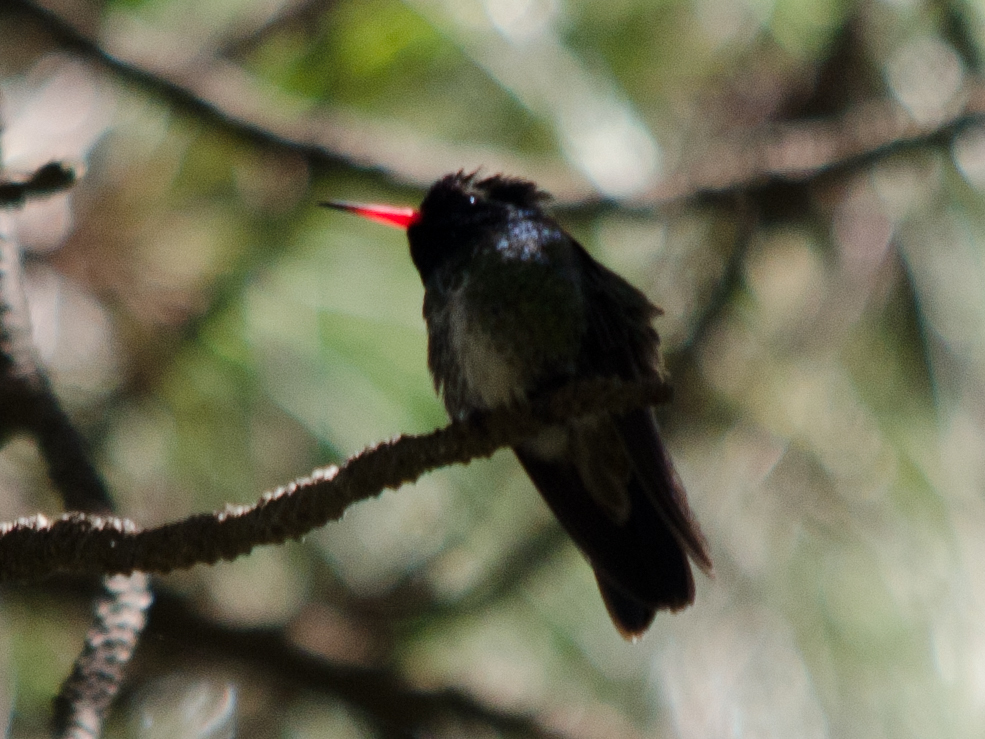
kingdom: Animalia
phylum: Chordata
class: Aves
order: Apodiformes
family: Trochilidae
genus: Basilinna
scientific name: Basilinna leucotis
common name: White-eared hummingbird
